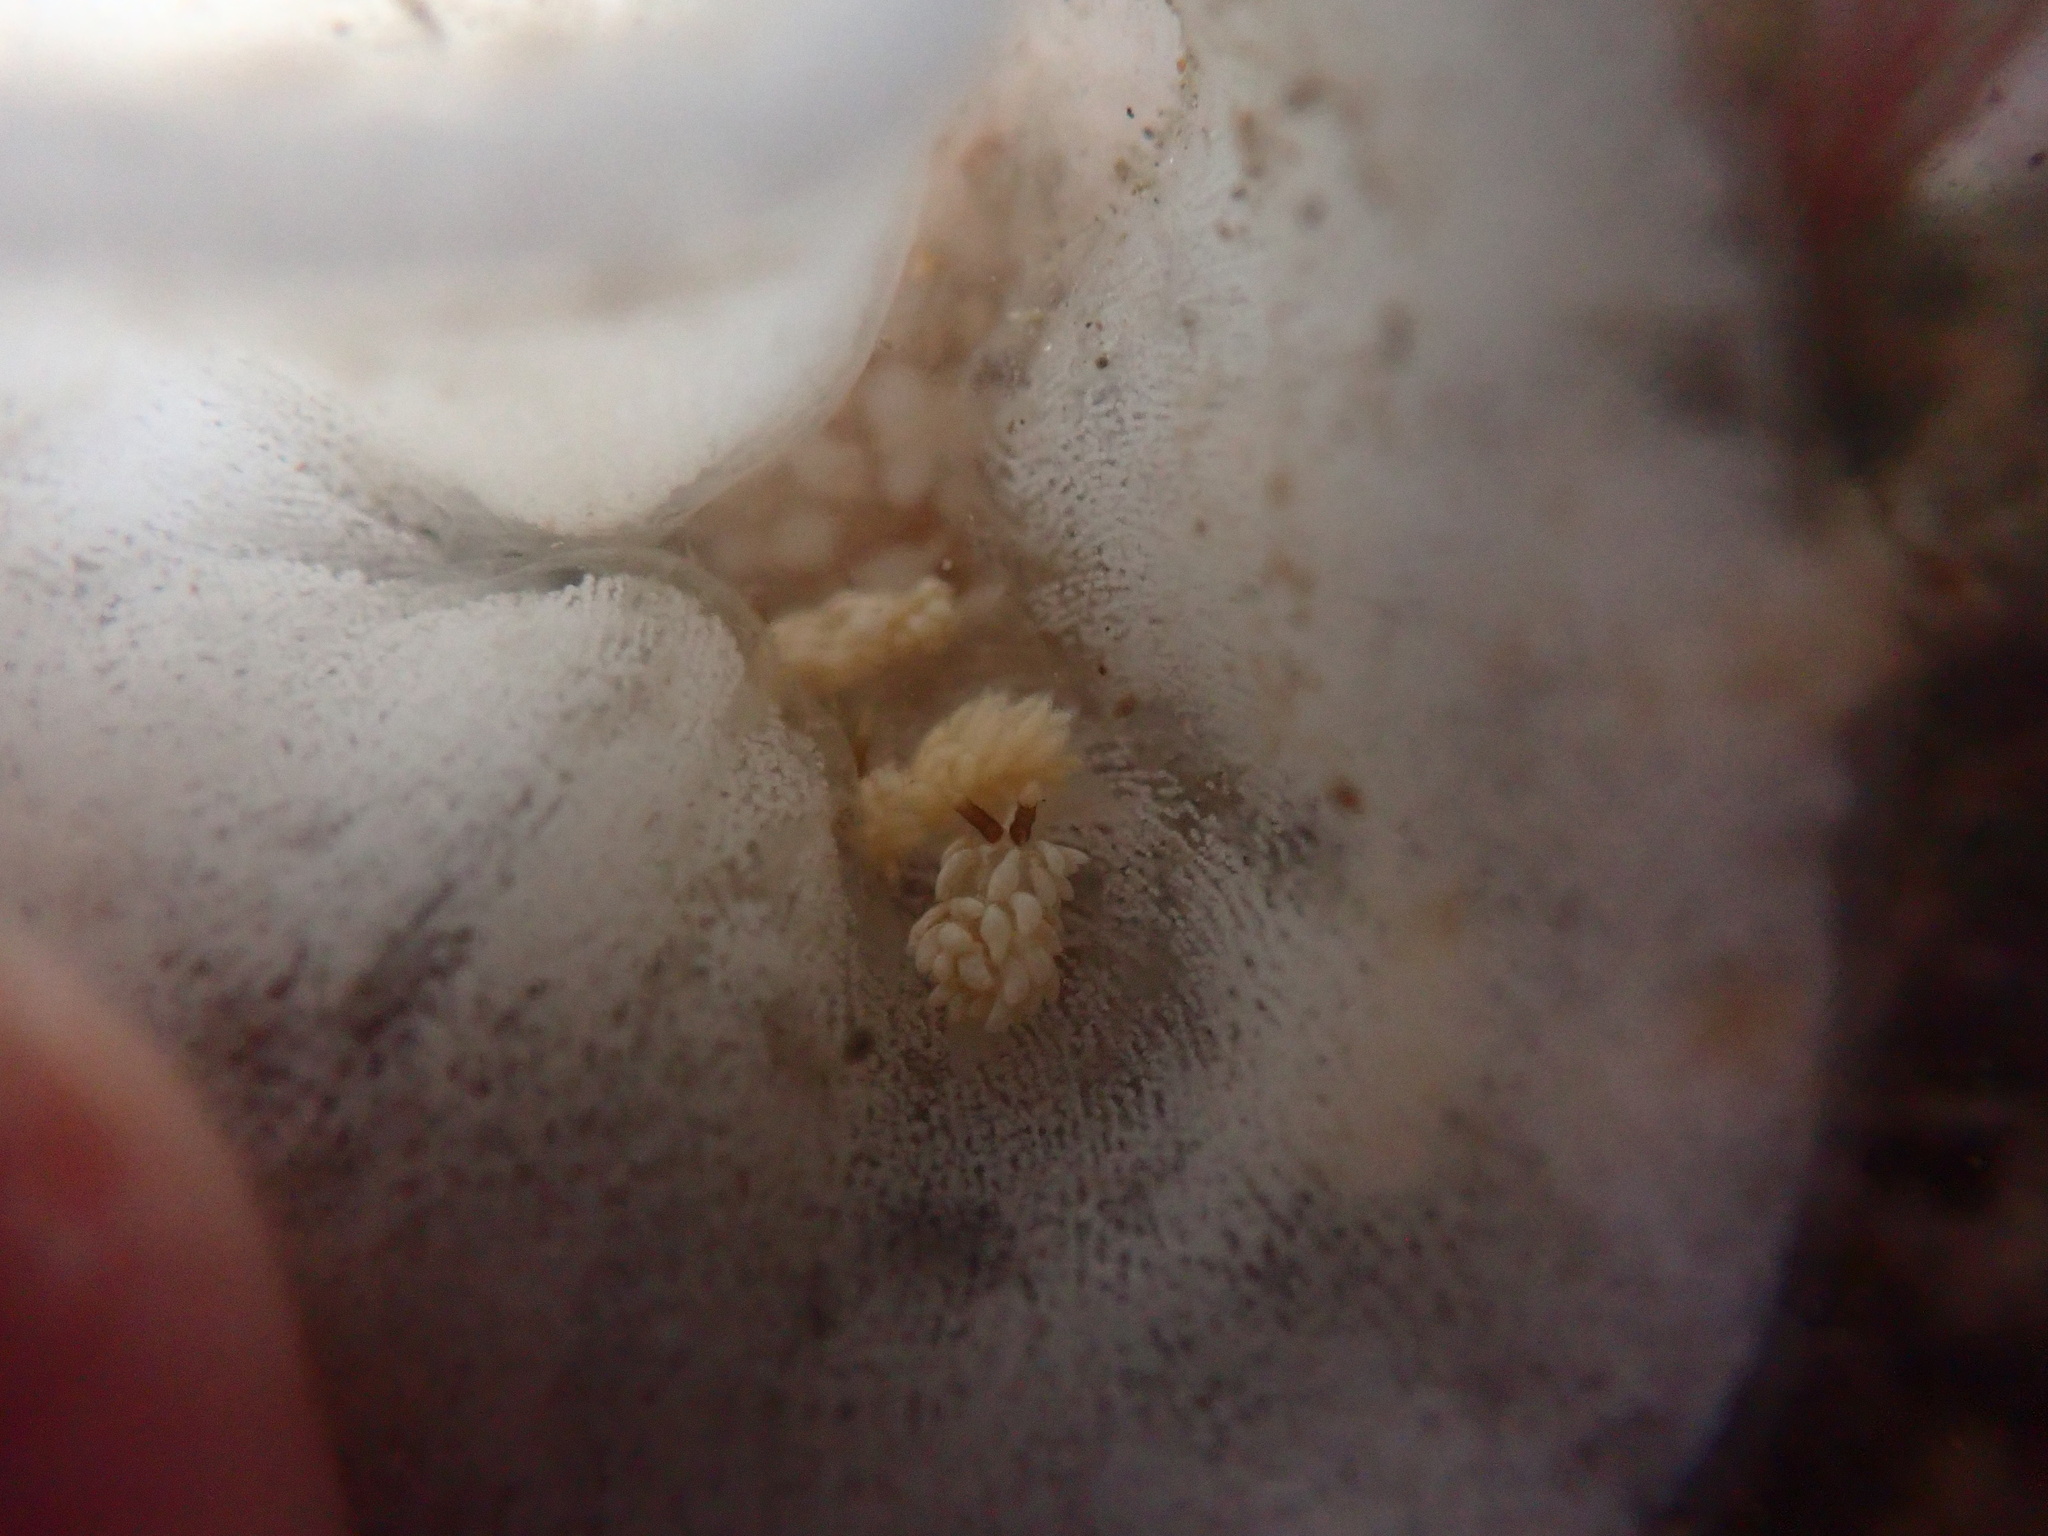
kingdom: Animalia
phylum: Mollusca
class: Gastropoda
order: Nudibranchia
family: Facelinidae
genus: Favorinus
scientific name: Favorinus branchialis
